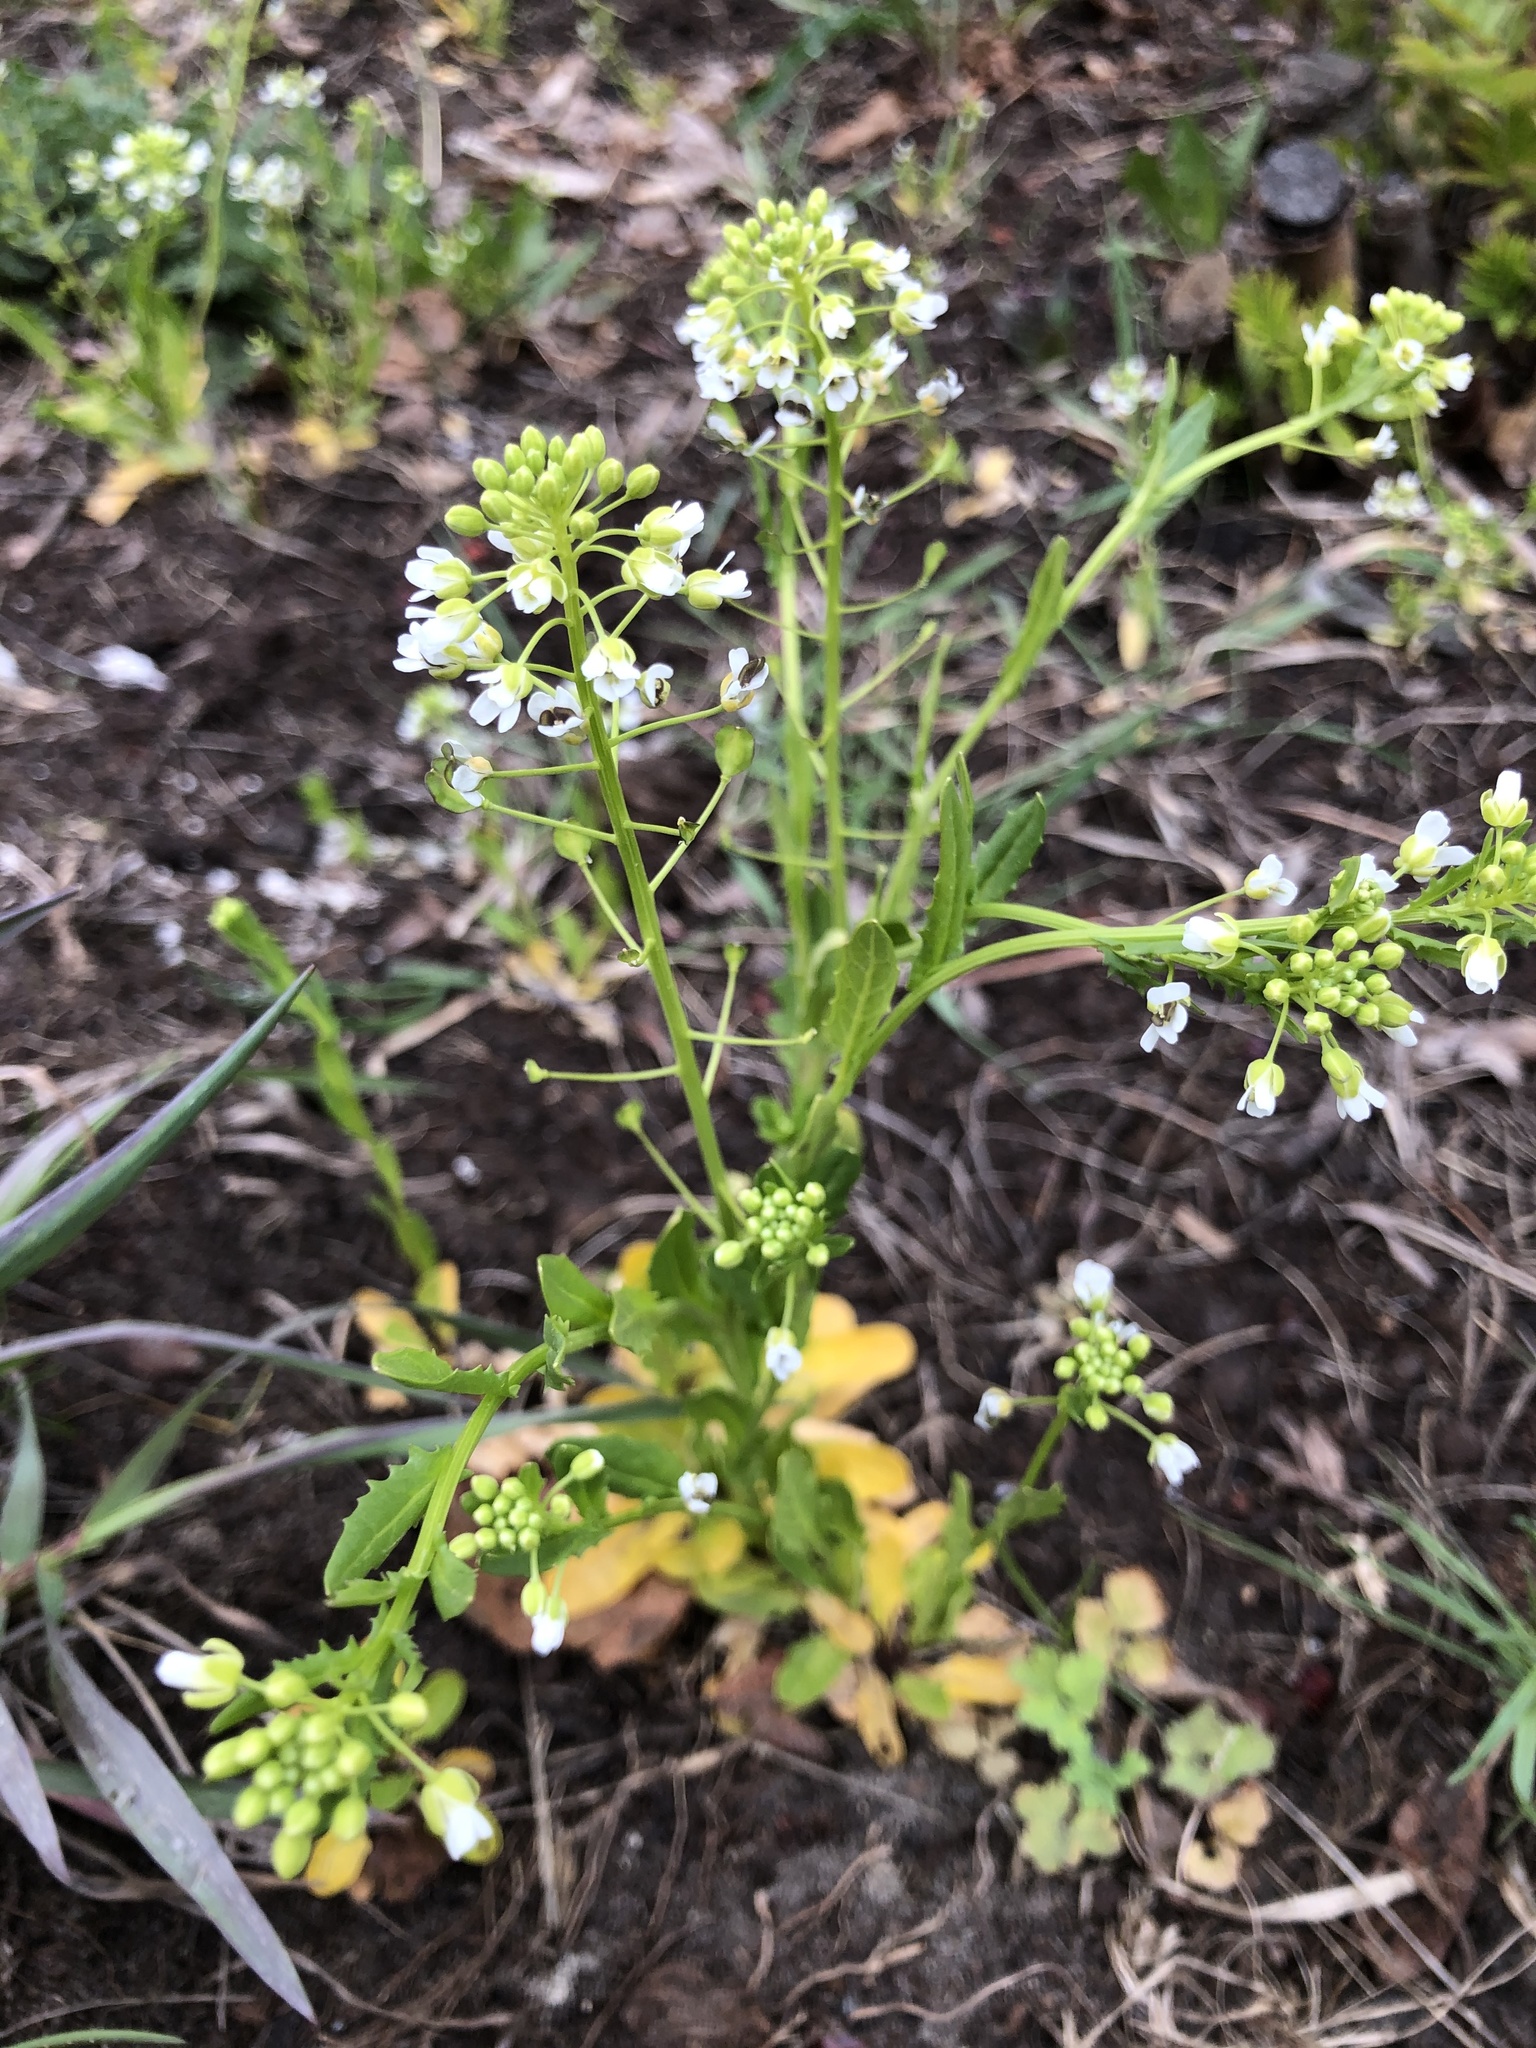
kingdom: Plantae
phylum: Tracheophyta
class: Magnoliopsida
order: Brassicales
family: Brassicaceae
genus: Thlaspi
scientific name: Thlaspi arvense
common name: Field pennycress
